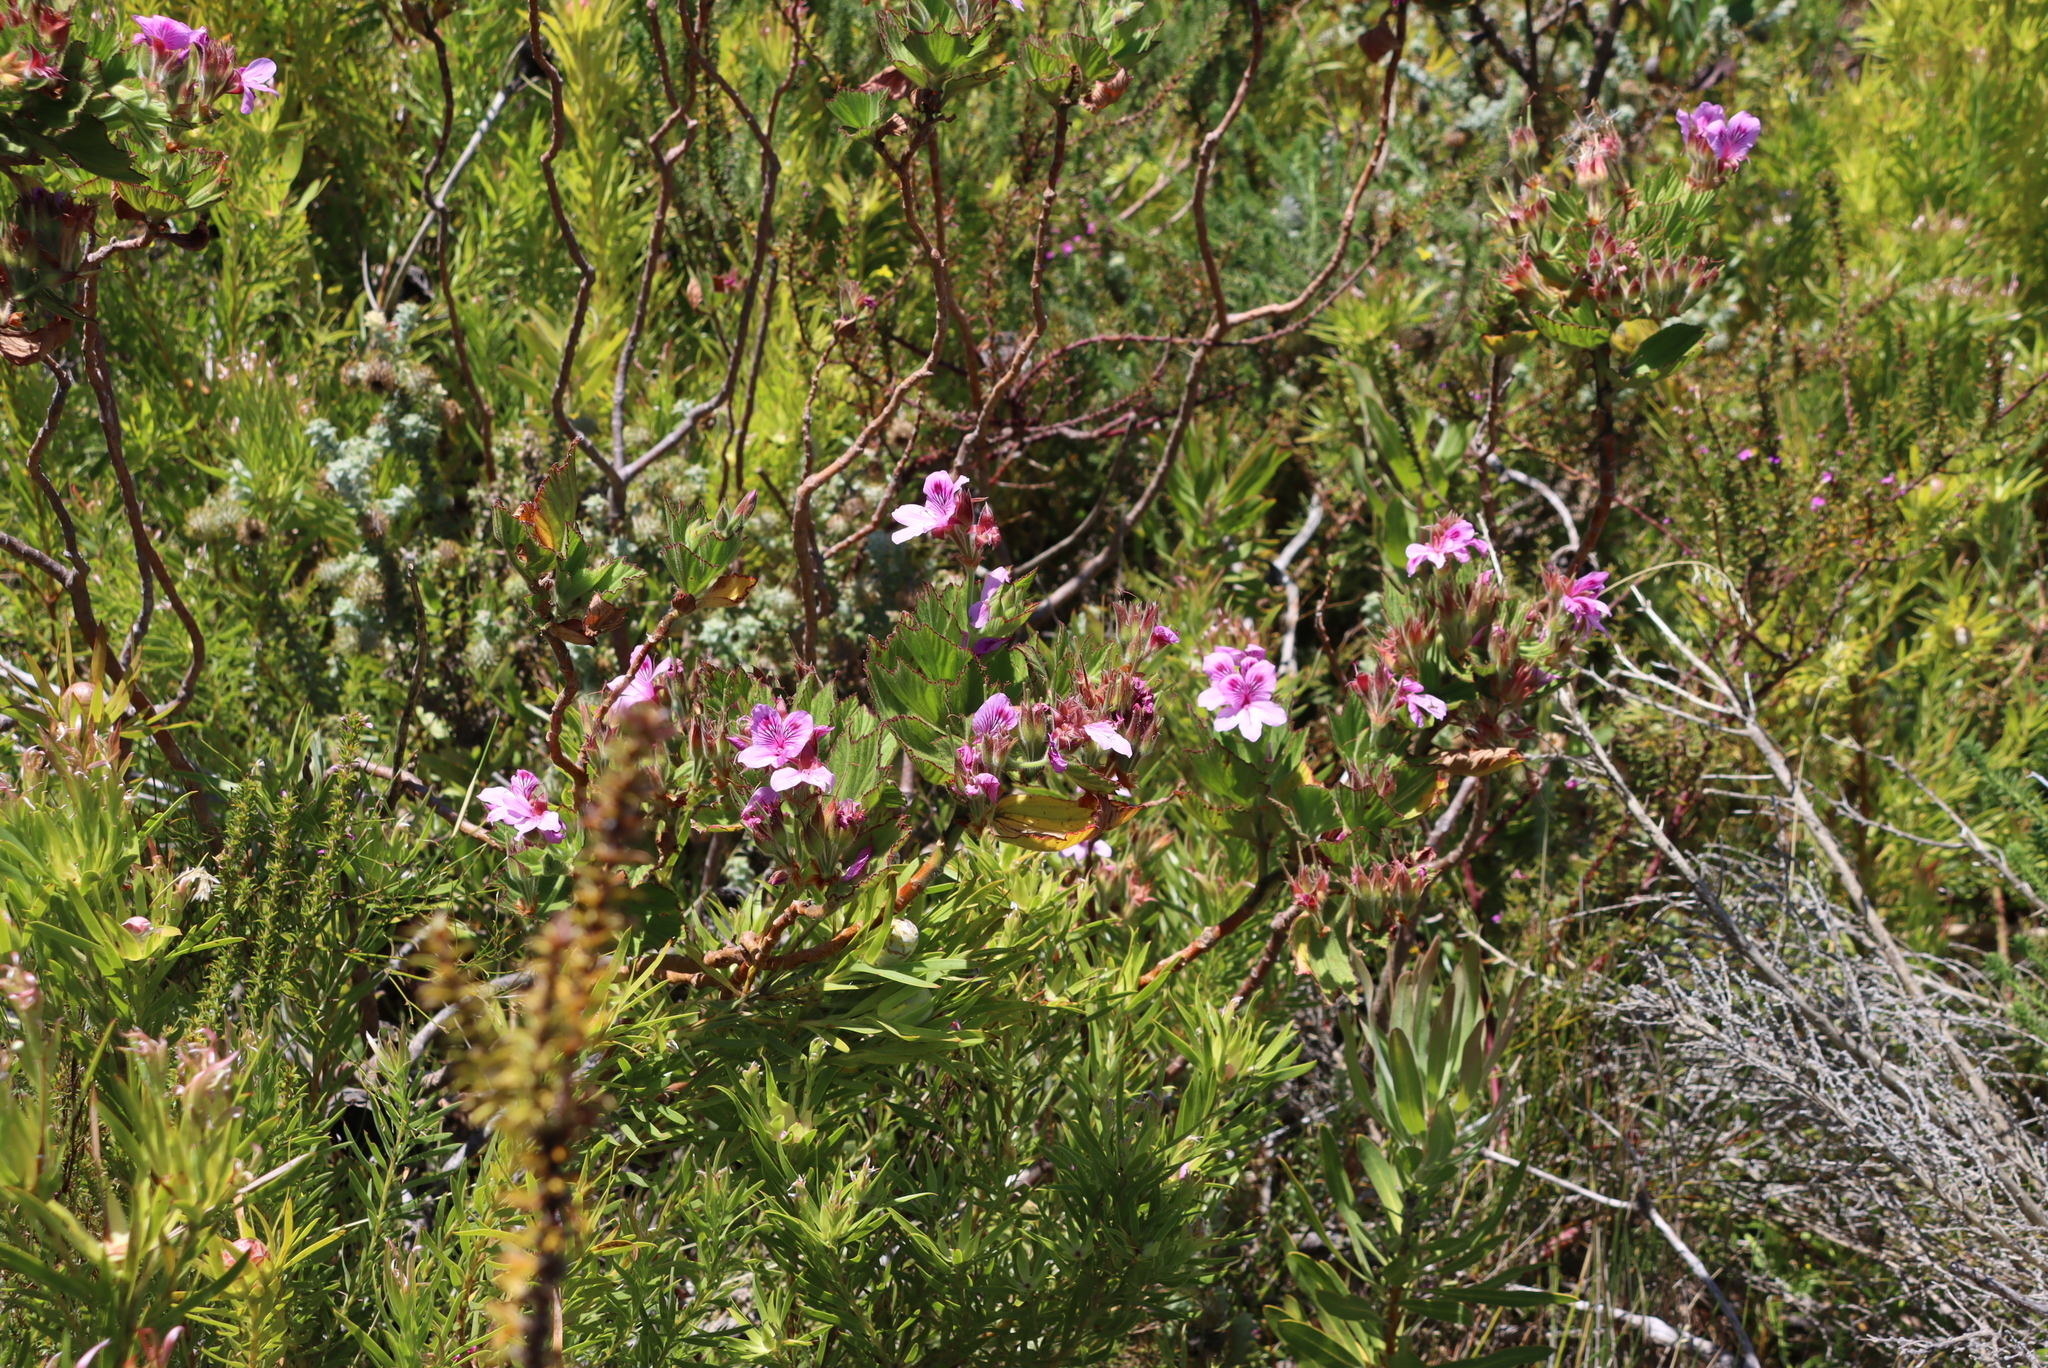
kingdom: Plantae
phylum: Tracheophyta
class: Magnoliopsida
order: Geraniales
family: Geraniaceae
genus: Pelargonium
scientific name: Pelargonium cucullatum
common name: Tree pelargonium
